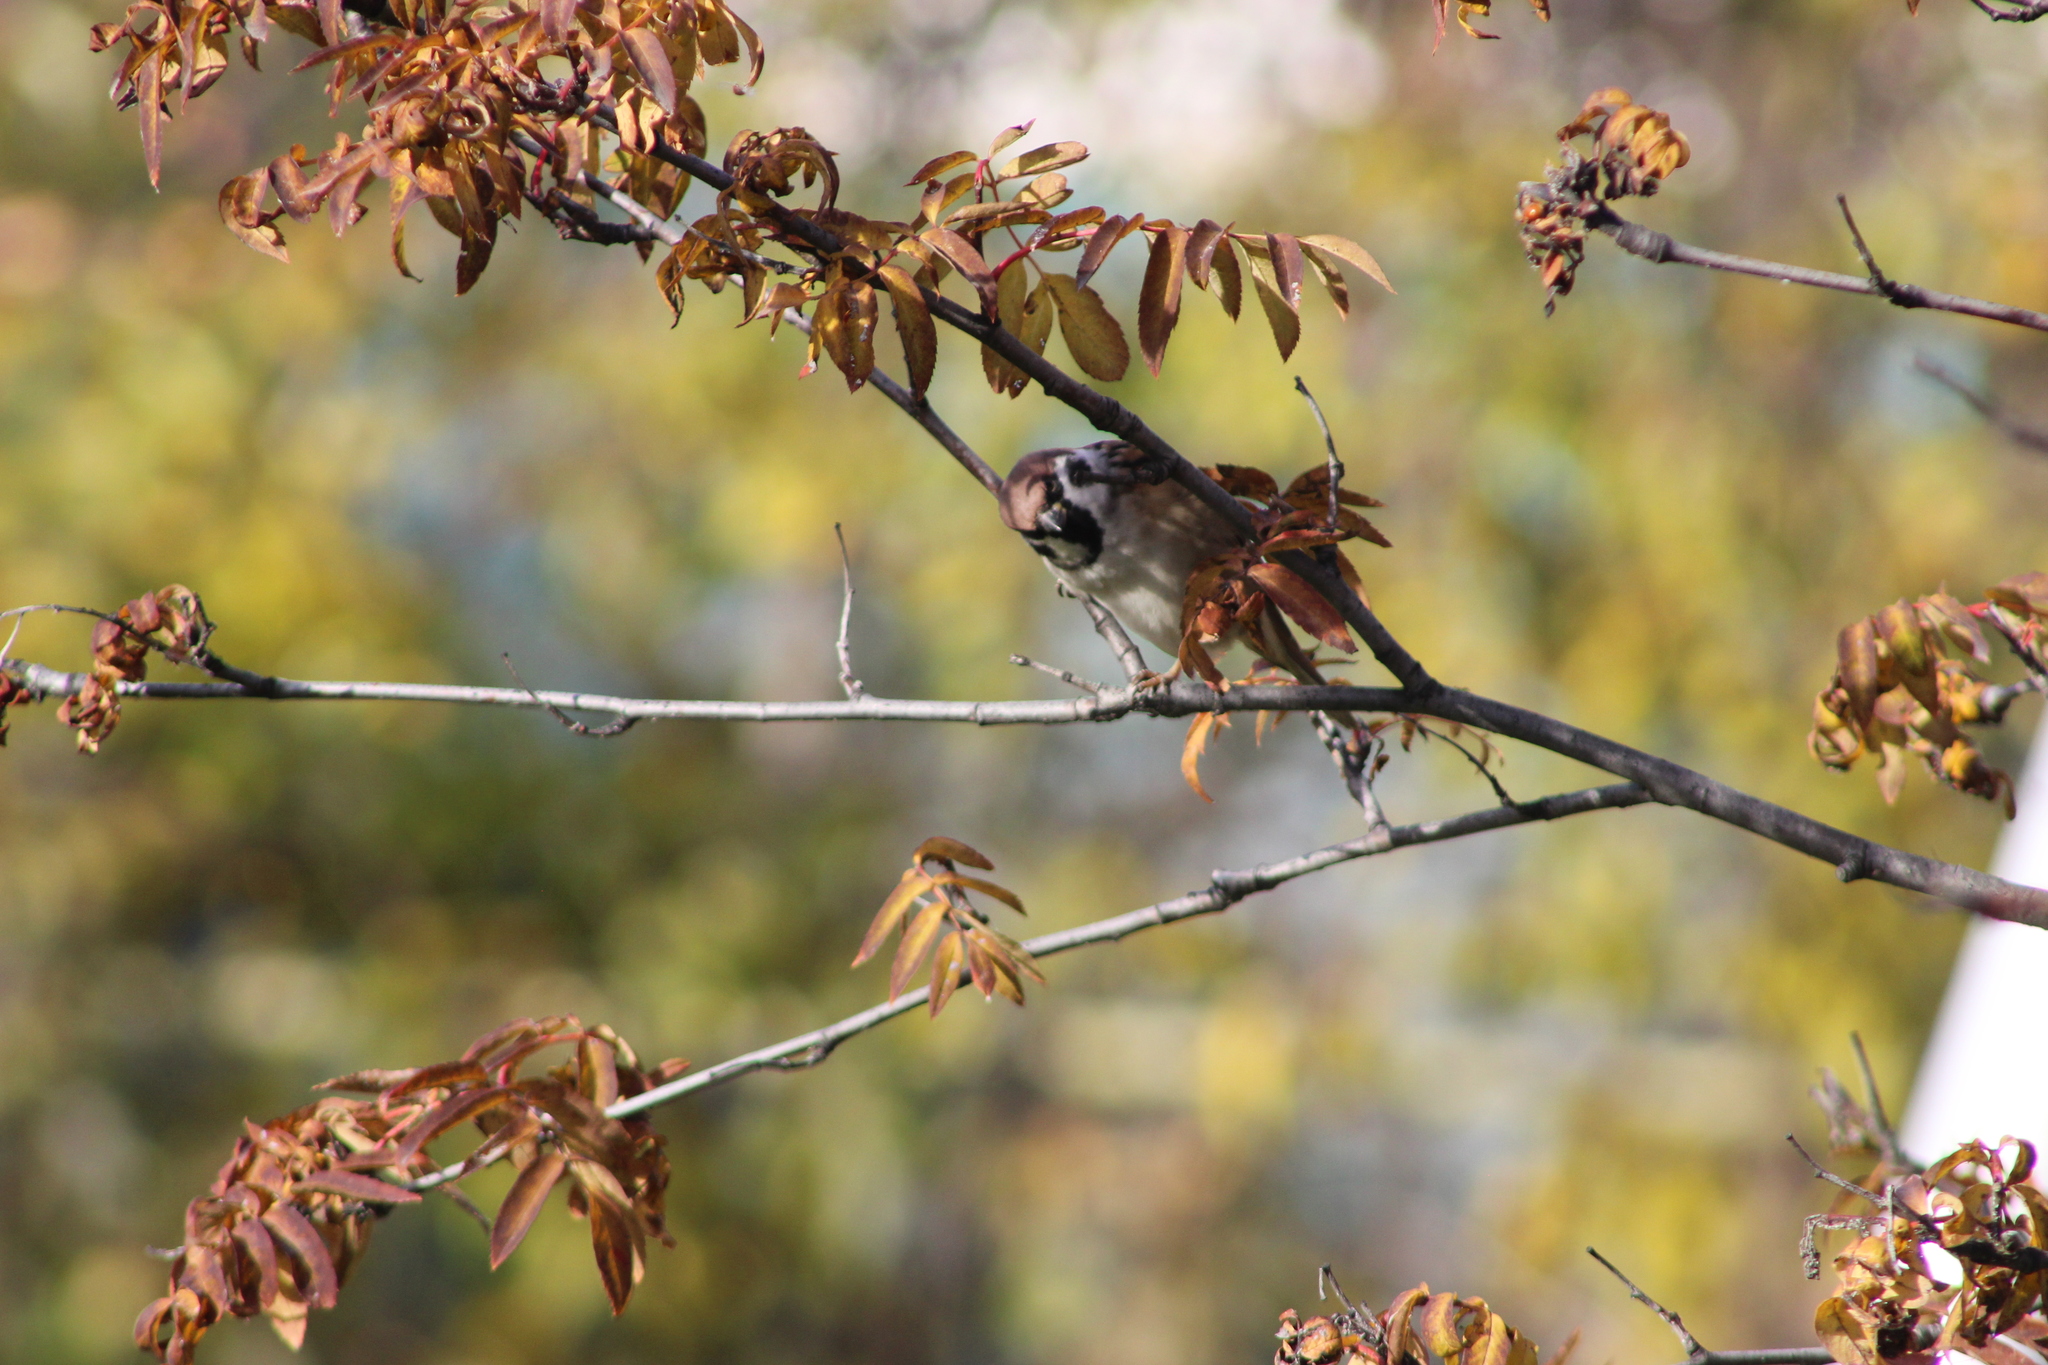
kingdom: Animalia
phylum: Chordata
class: Aves
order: Passeriformes
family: Passeridae
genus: Passer
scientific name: Passer montanus
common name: Eurasian tree sparrow
